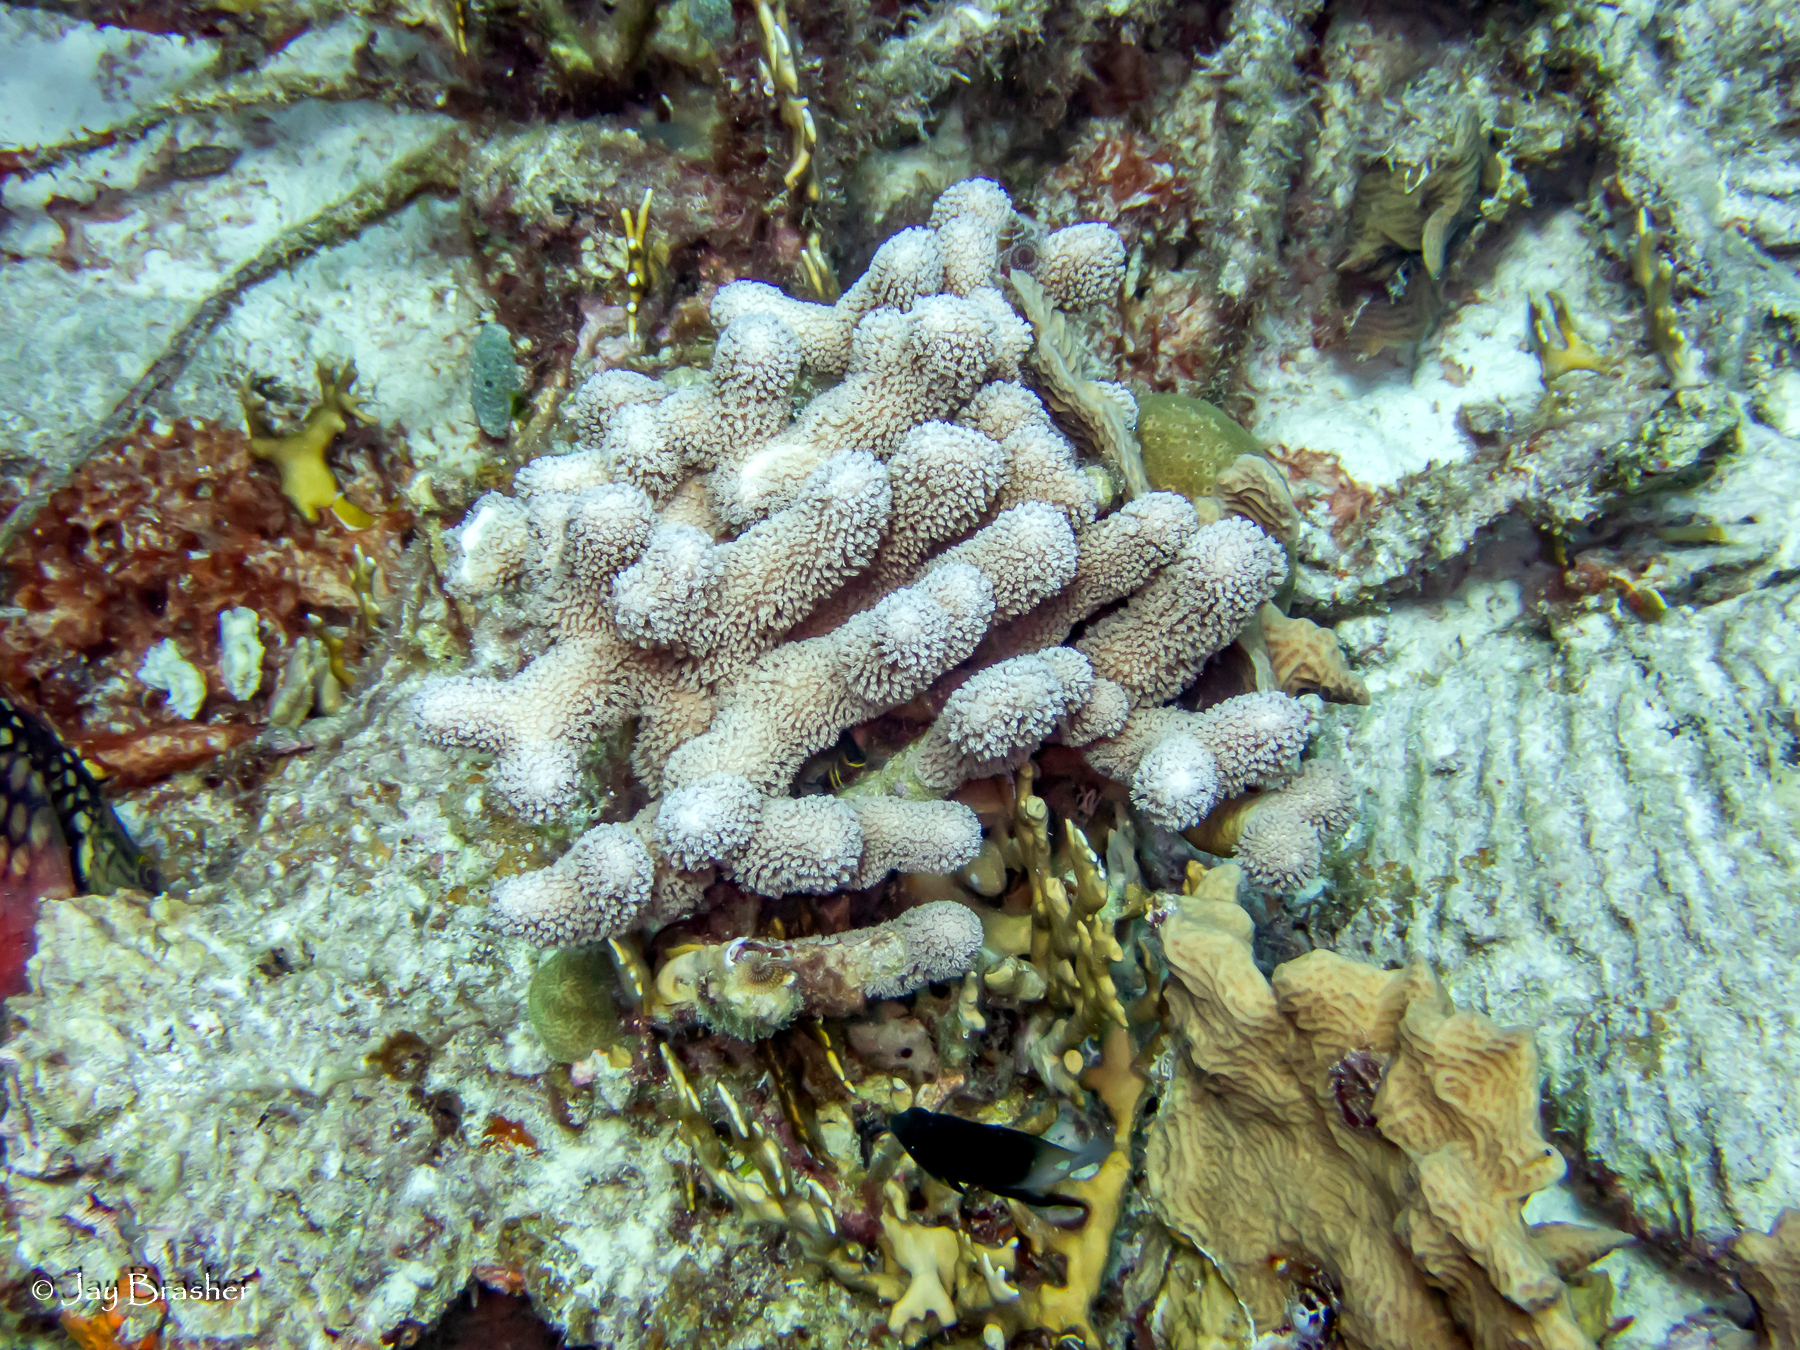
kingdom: Animalia
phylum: Cnidaria
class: Anthozoa
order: Scleractinia
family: Poritidae
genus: Porites
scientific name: Porites porites
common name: Finger coral
